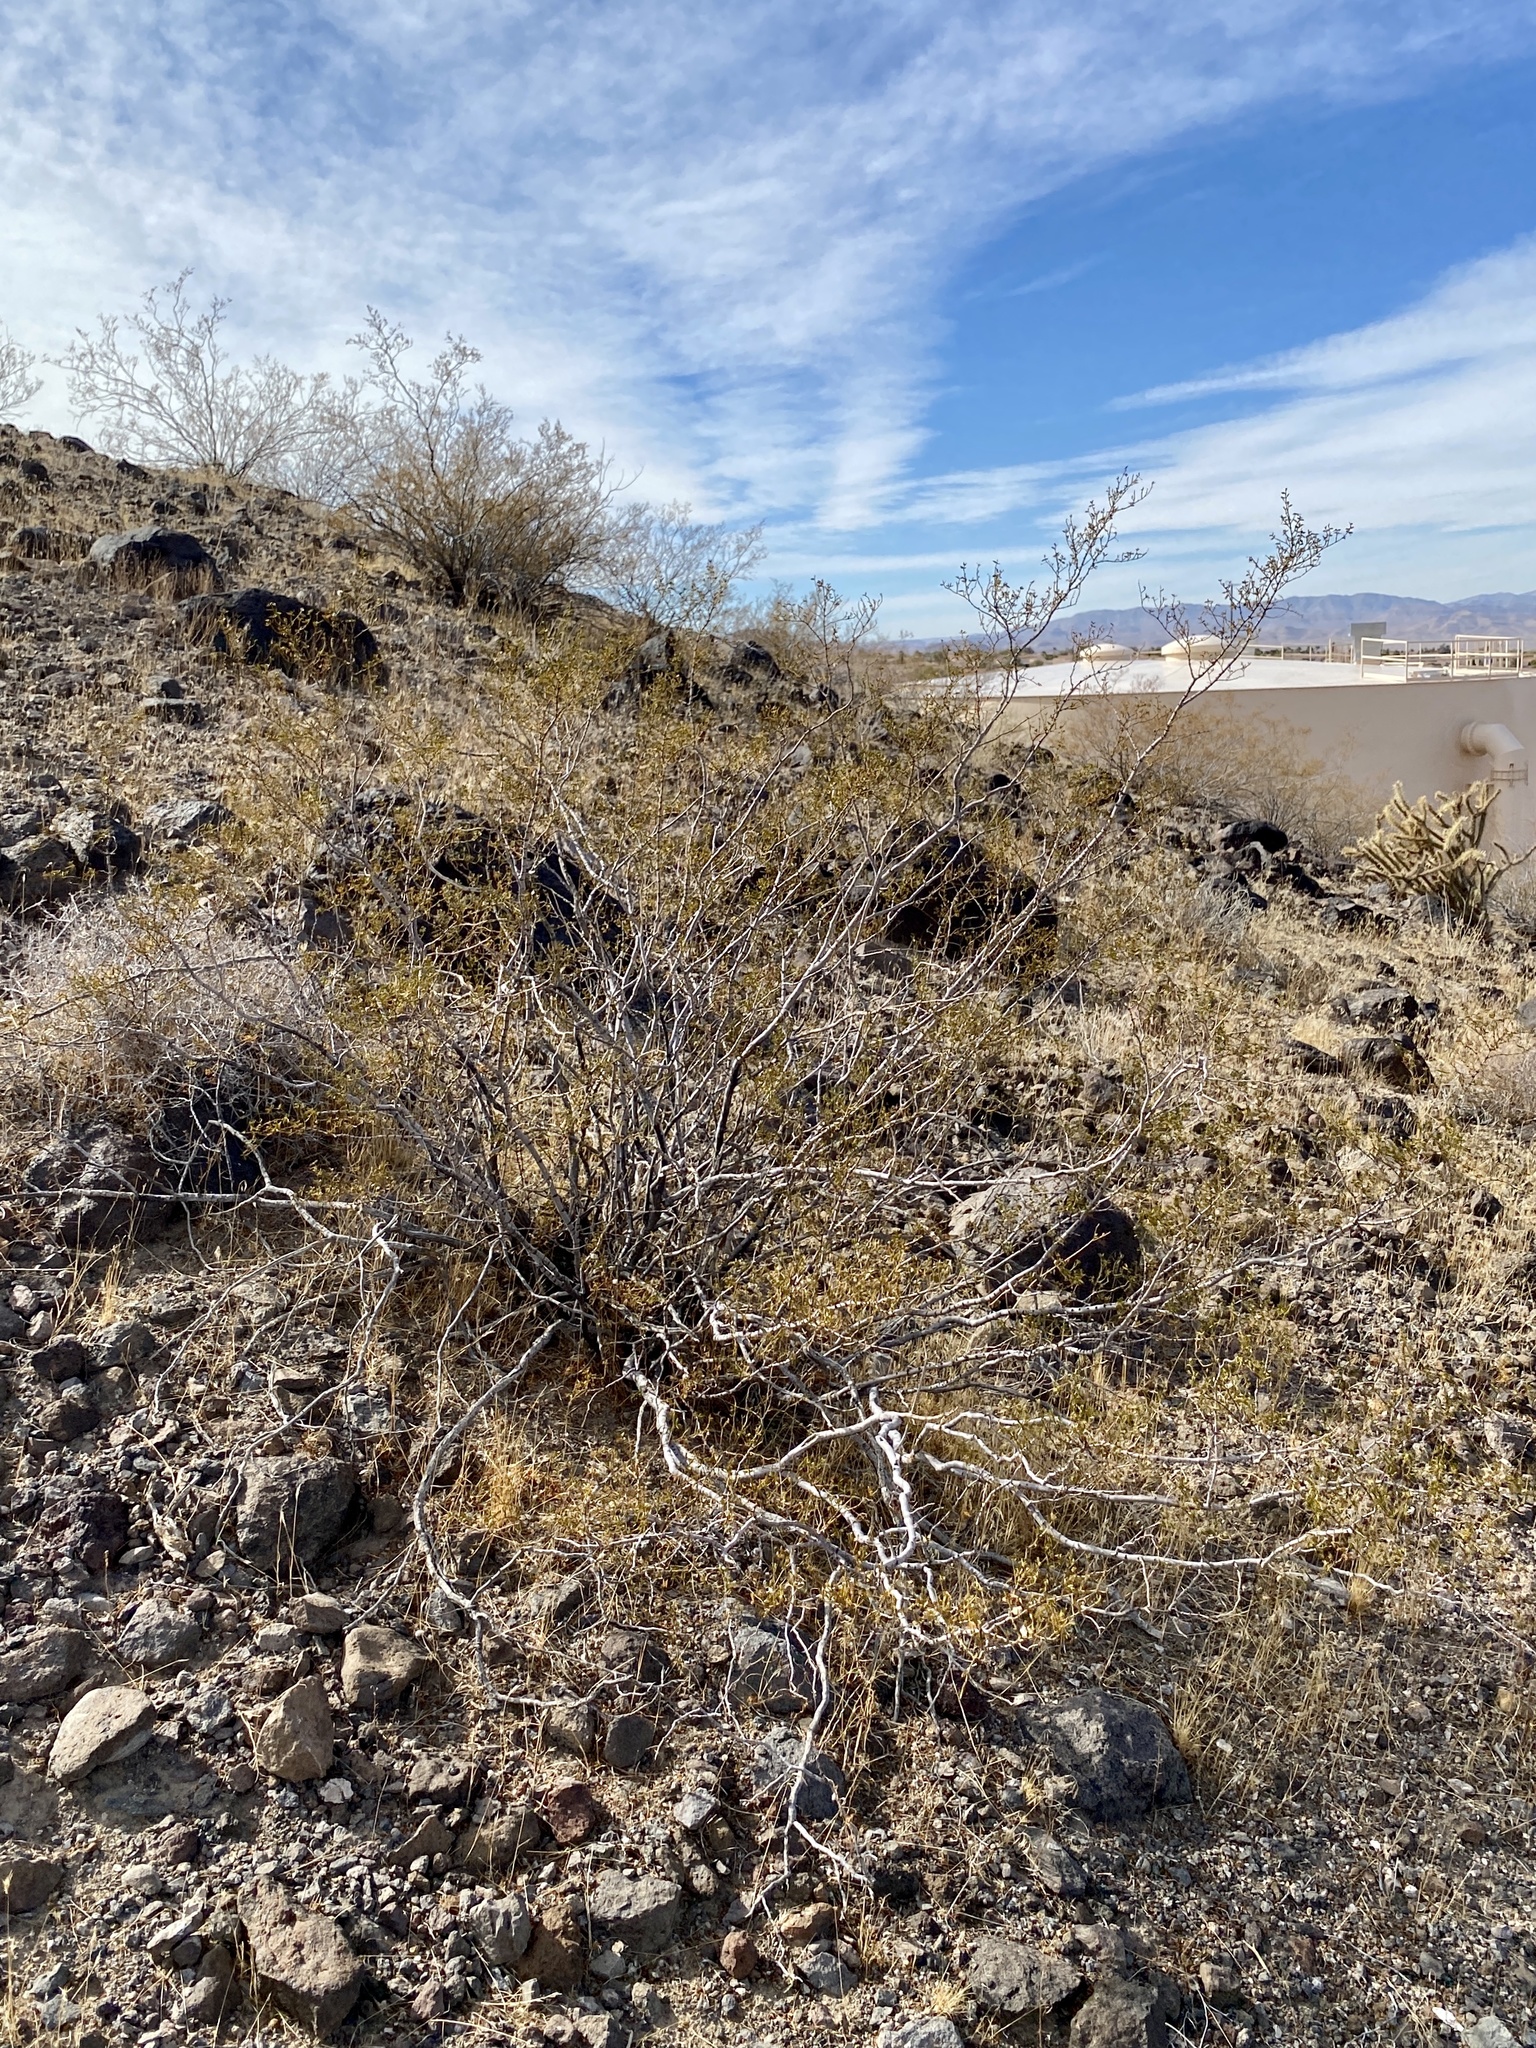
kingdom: Plantae
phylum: Tracheophyta
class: Magnoliopsida
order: Zygophyllales
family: Zygophyllaceae
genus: Larrea
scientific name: Larrea tridentata
